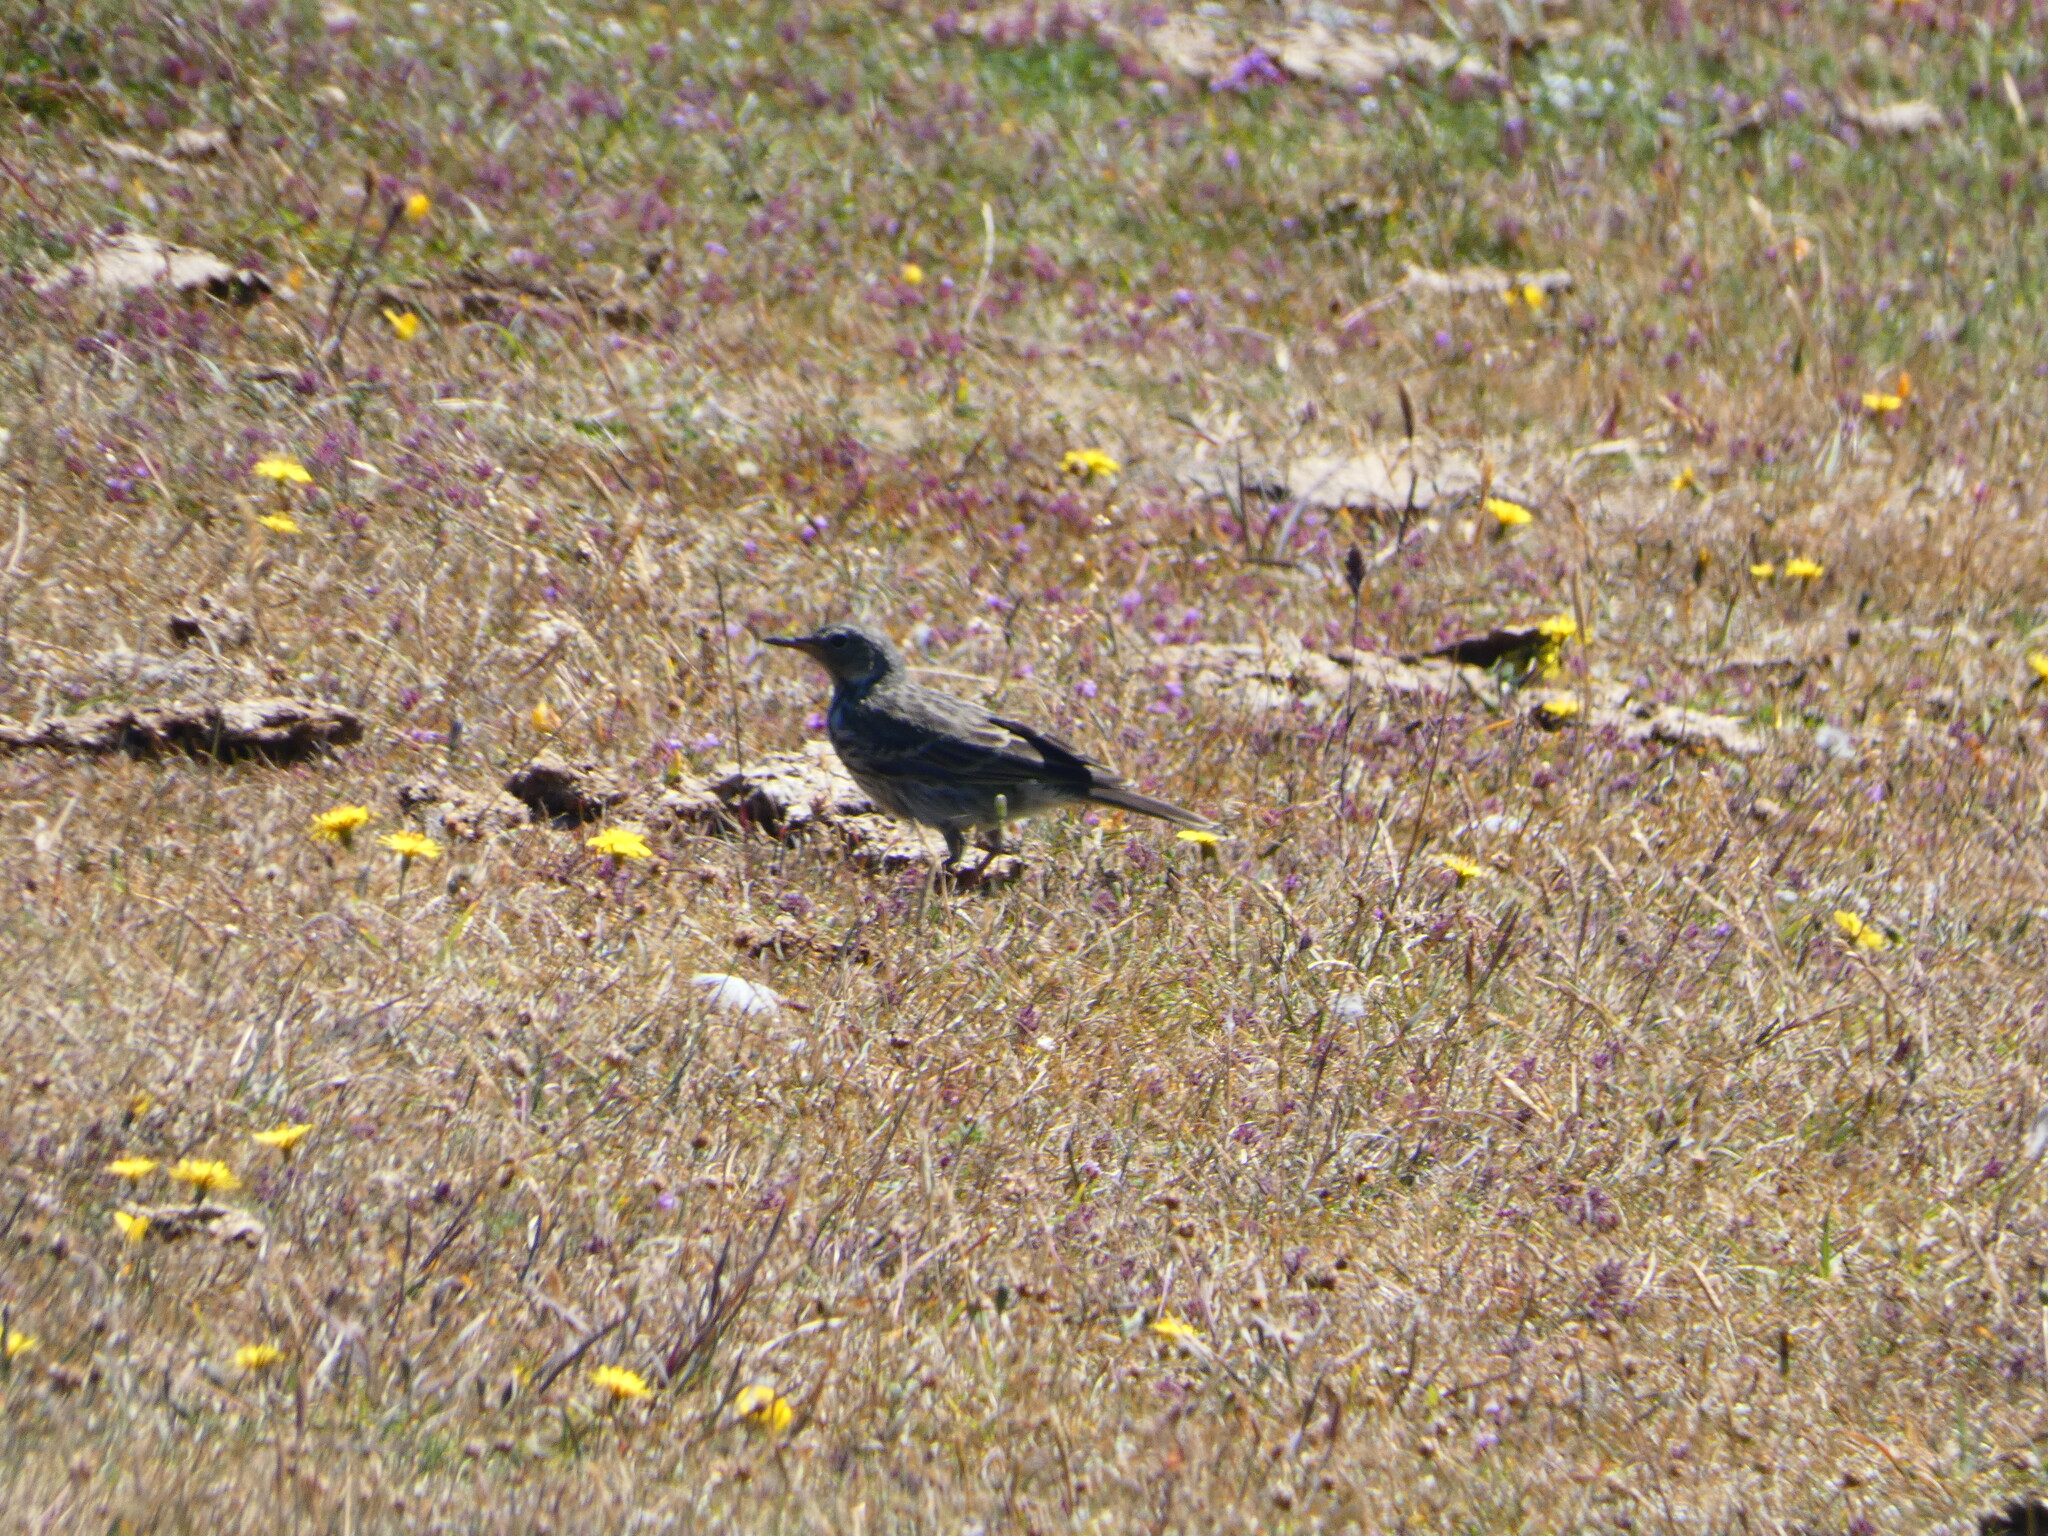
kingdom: Animalia
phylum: Chordata
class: Aves
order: Passeriformes
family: Motacillidae
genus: Anthus
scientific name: Anthus petrosus
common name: Eurasian rock pipit
